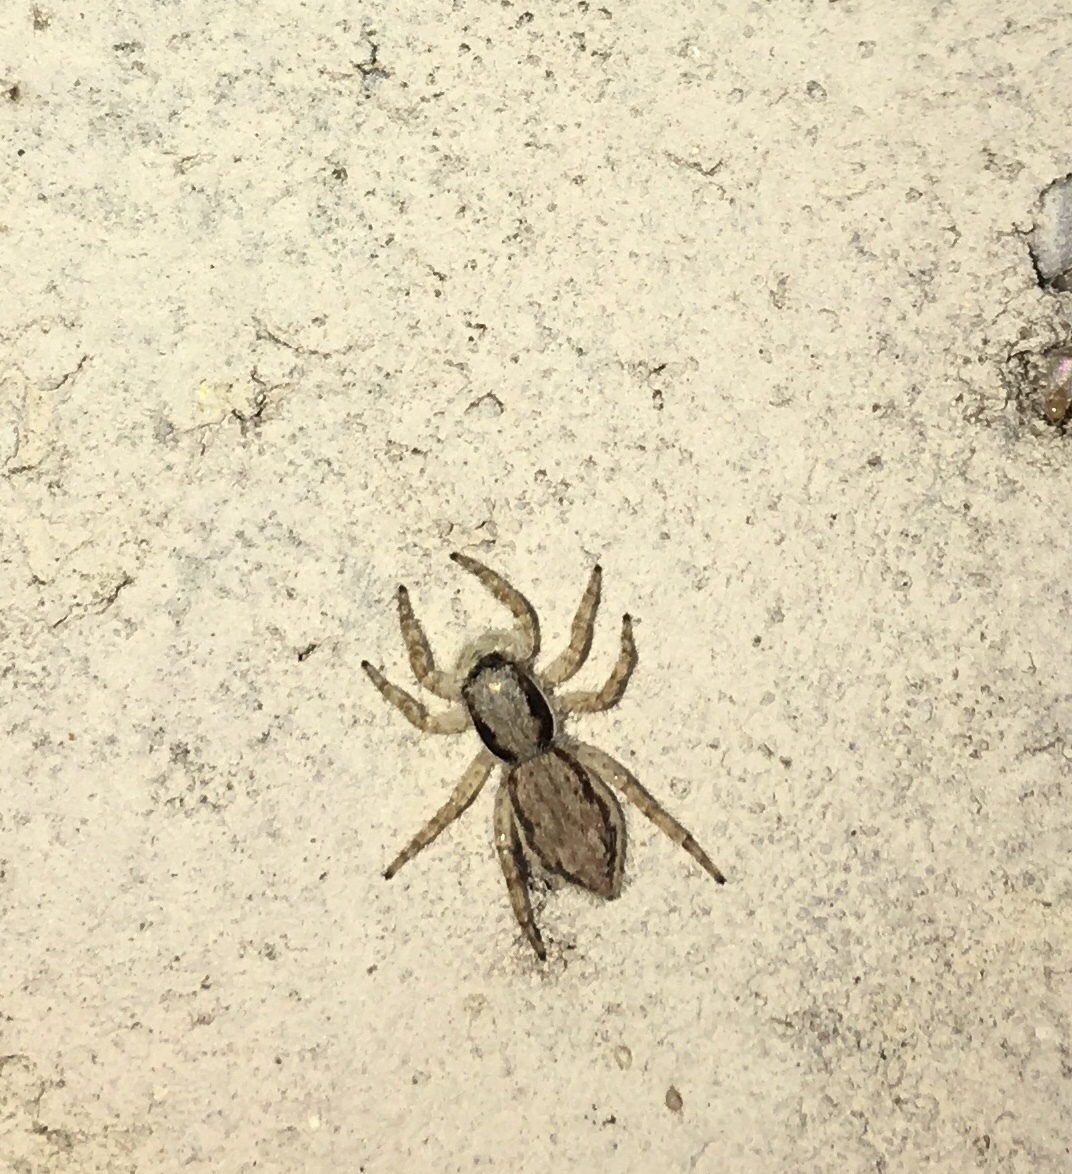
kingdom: Animalia
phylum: Arthropoda
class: Arachnida
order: Araneae
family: Salticidae
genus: Menemerus
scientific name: Menemerus bivittatus
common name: Gray wall jumper
